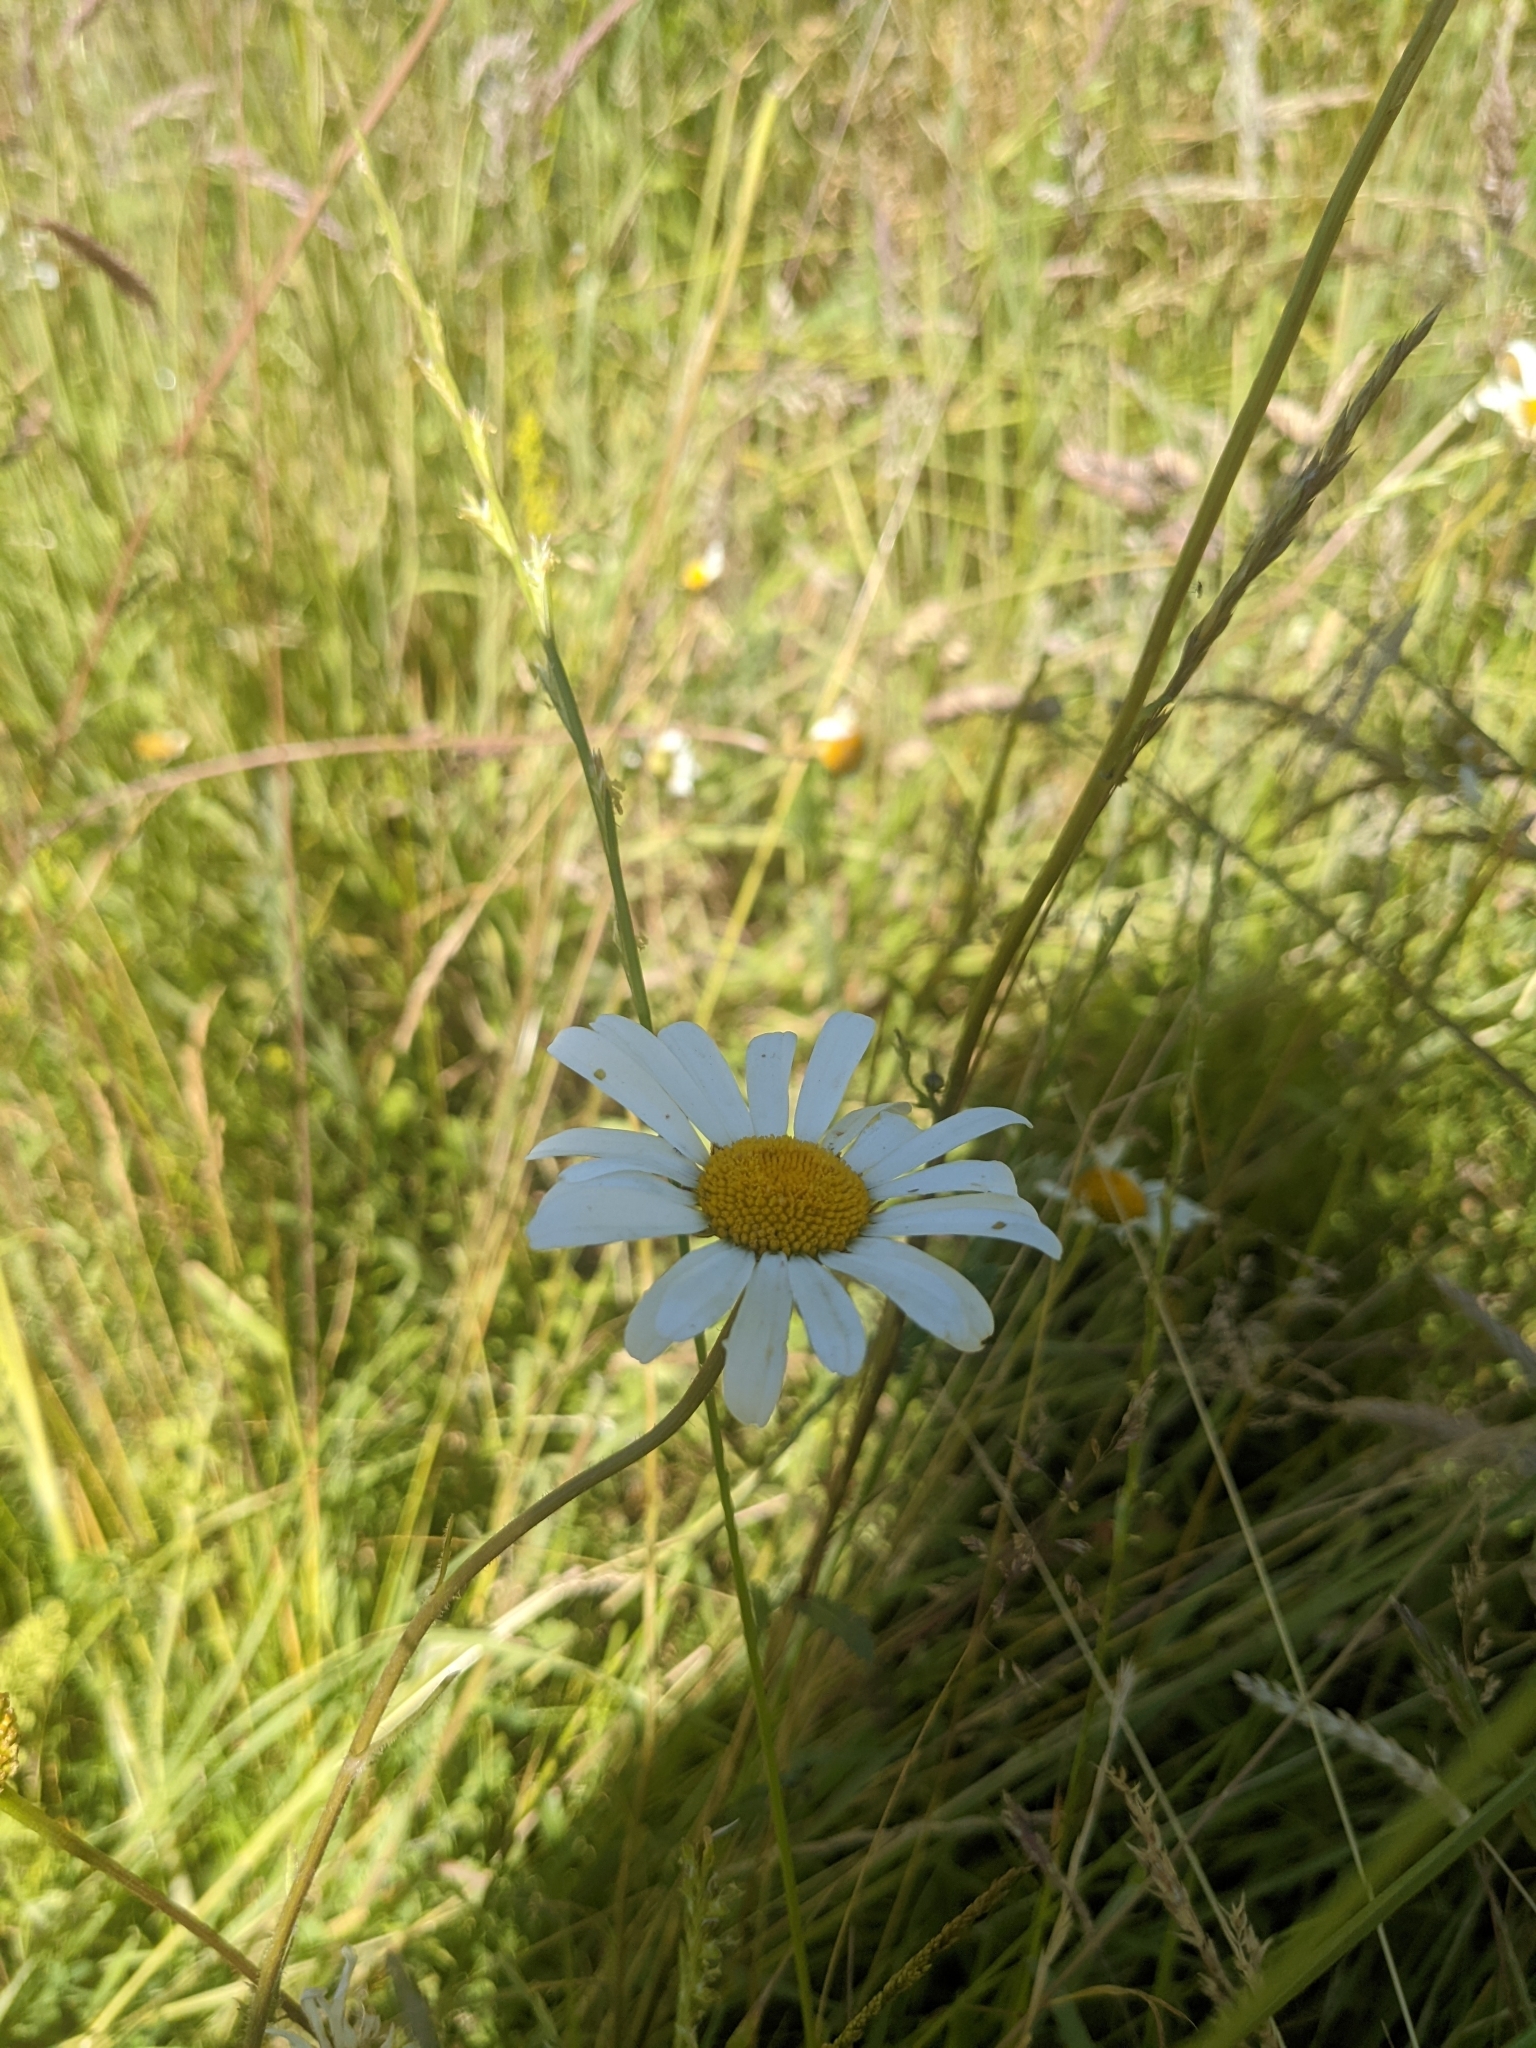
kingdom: Plantae
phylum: Tracheophyta
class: Magnoliopsida
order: Asterales
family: Asteraceae
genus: Leucanthemum
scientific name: Leucanthemum vulgare
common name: Oxeye daisy
